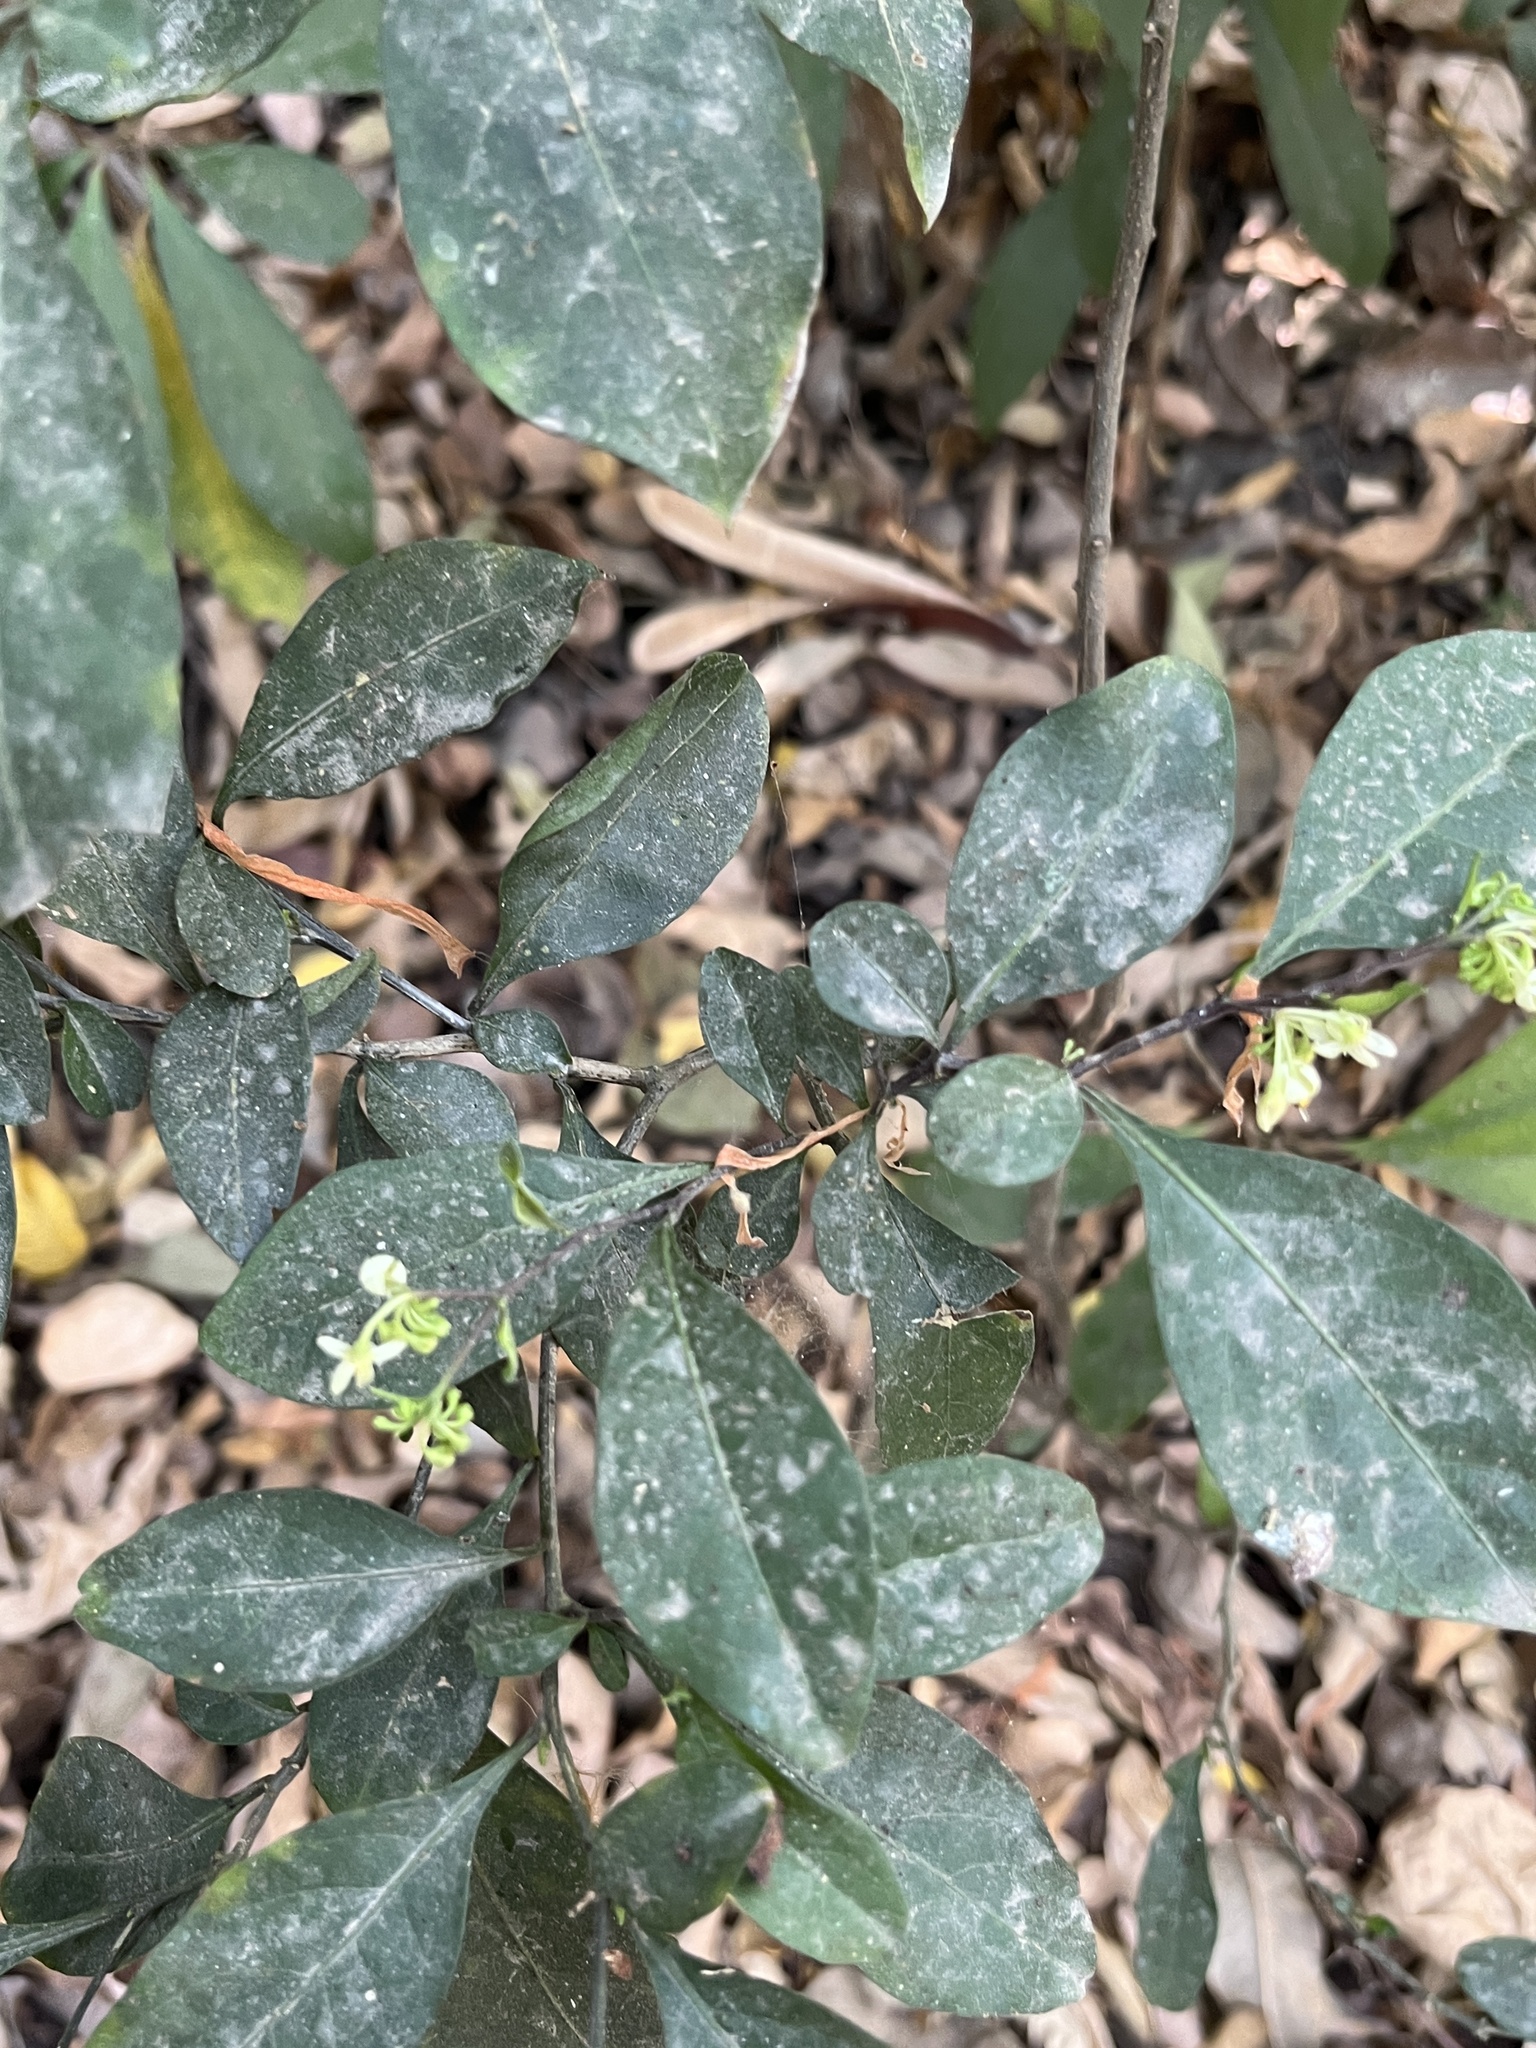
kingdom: Plantae
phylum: Tracheophyta
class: Magnoliopsida
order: Solanales
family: Solanaceae
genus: Solanum
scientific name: Solanum diphyllum
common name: Twoleaf nightshade
